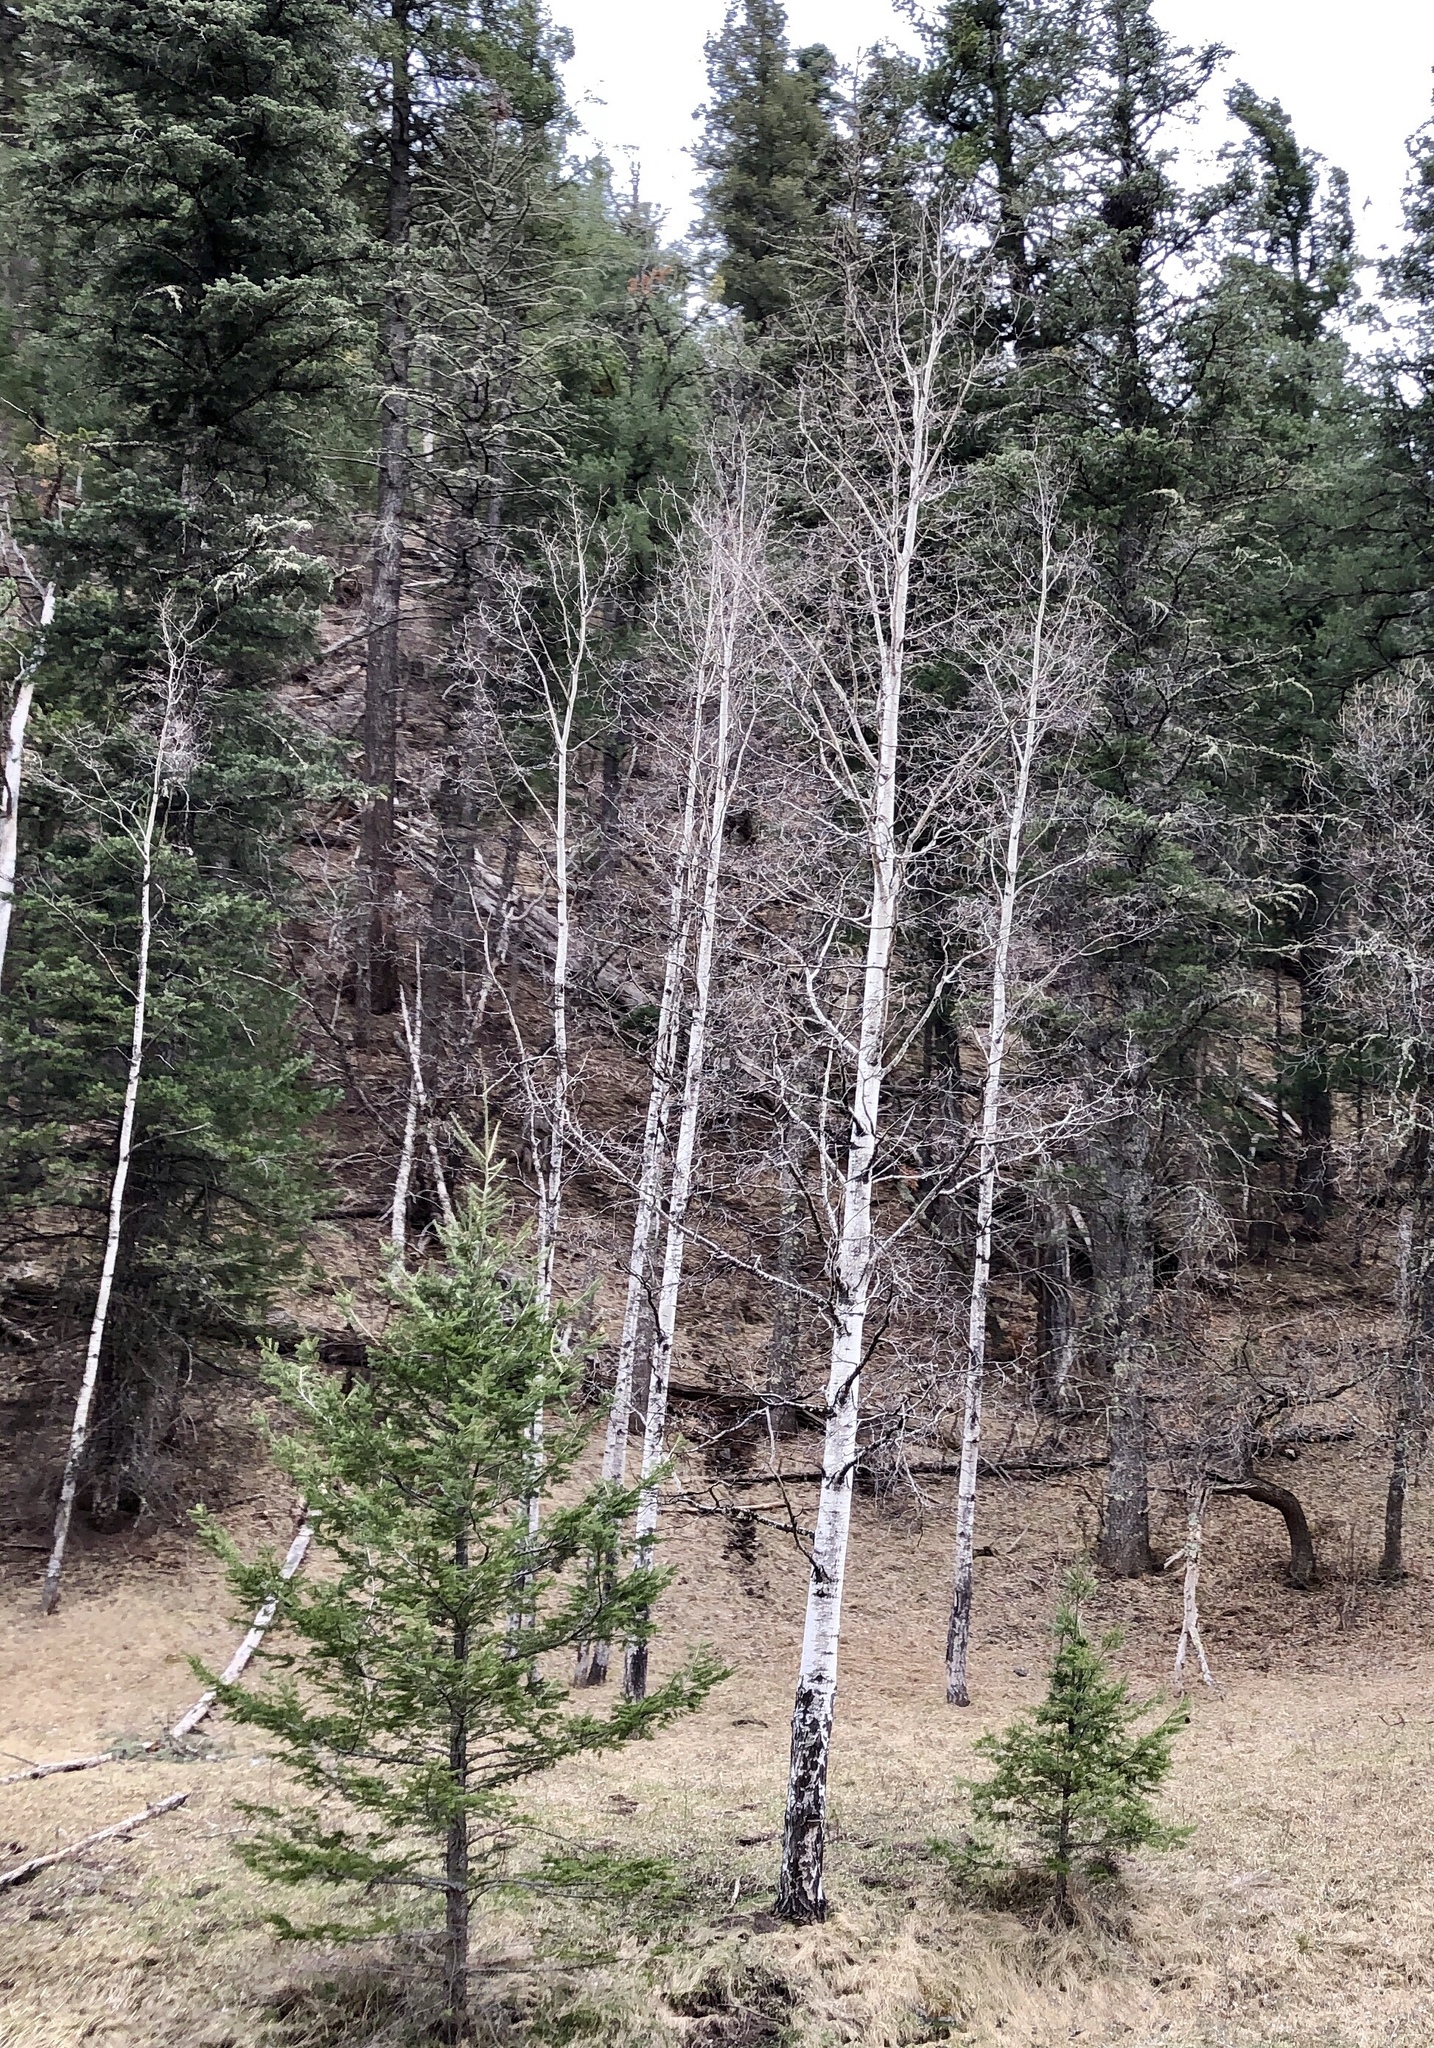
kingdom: Plantae
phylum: Tracheophyta
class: Magnoliopsida
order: Malpighiales
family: Salicaceae
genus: Populus
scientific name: Populus tremuloides
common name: Quaking aspen
